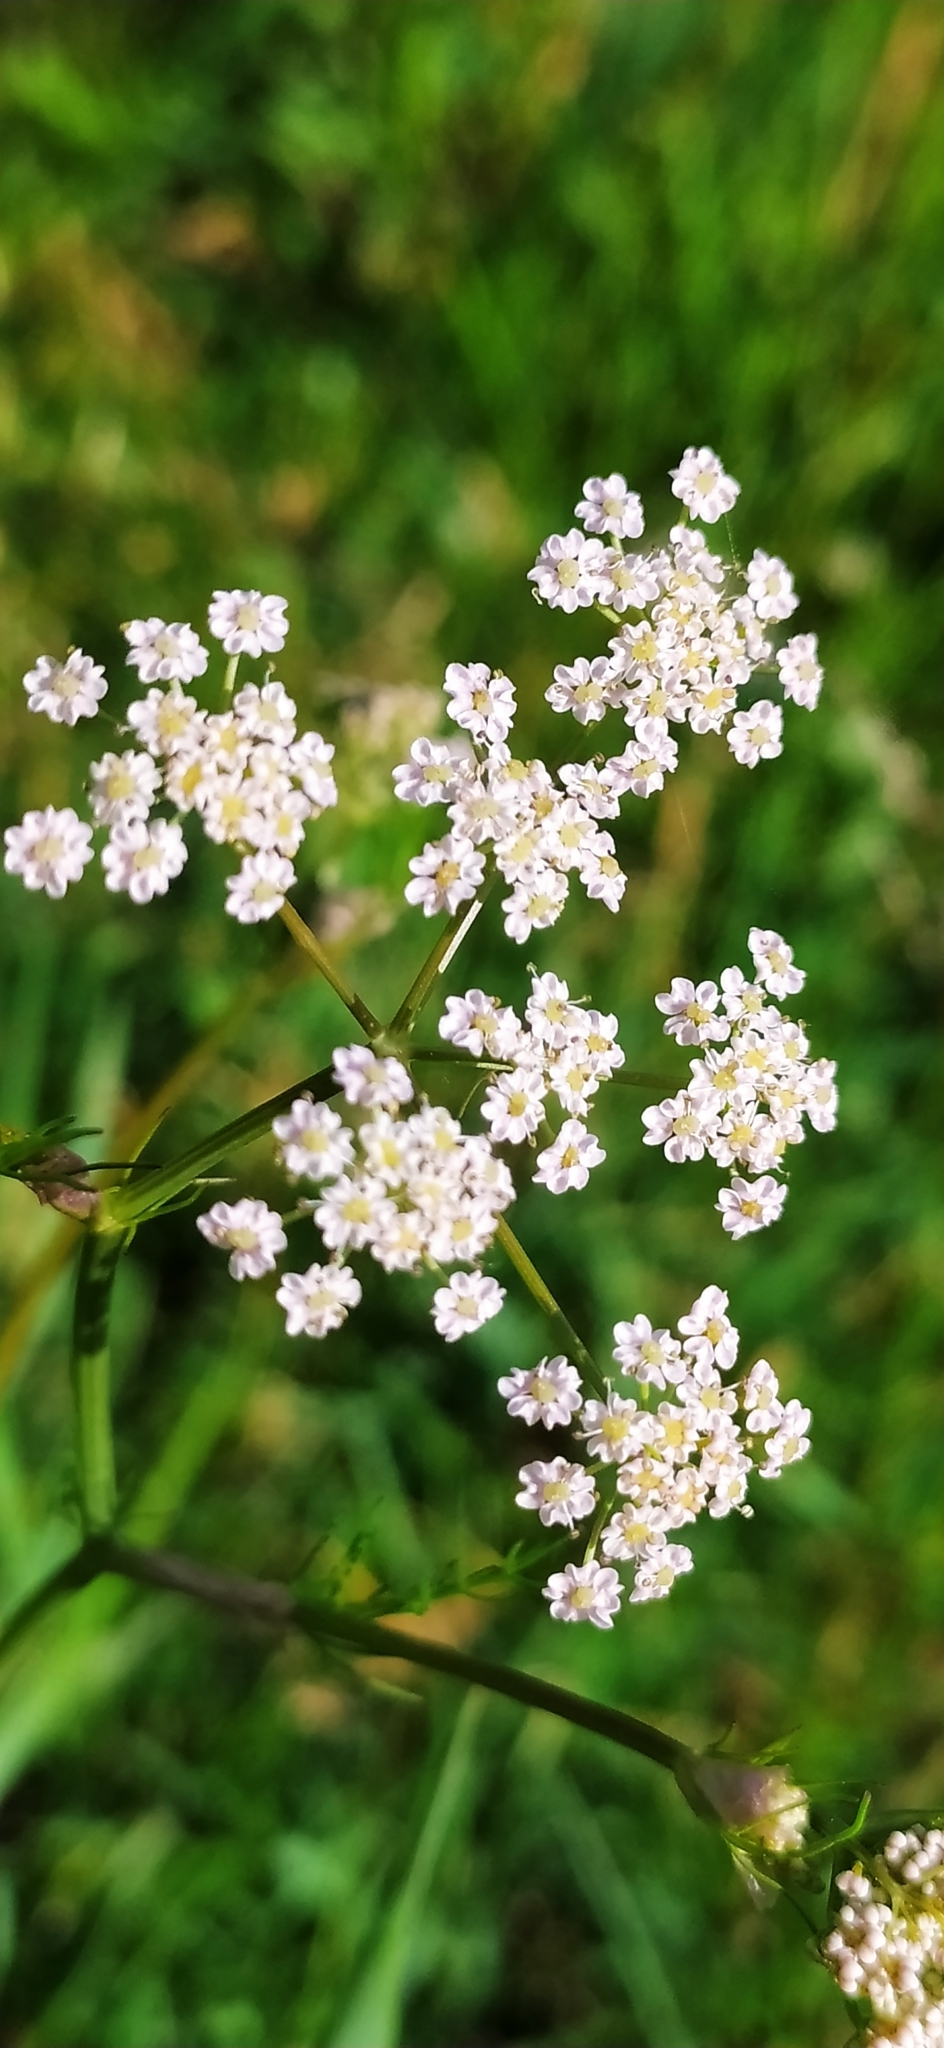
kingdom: Plantae
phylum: Tracheophyta
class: Magnoliopsida
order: Apiales
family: Apiaceae
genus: Carum
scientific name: Carum carvi
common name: Caraway
